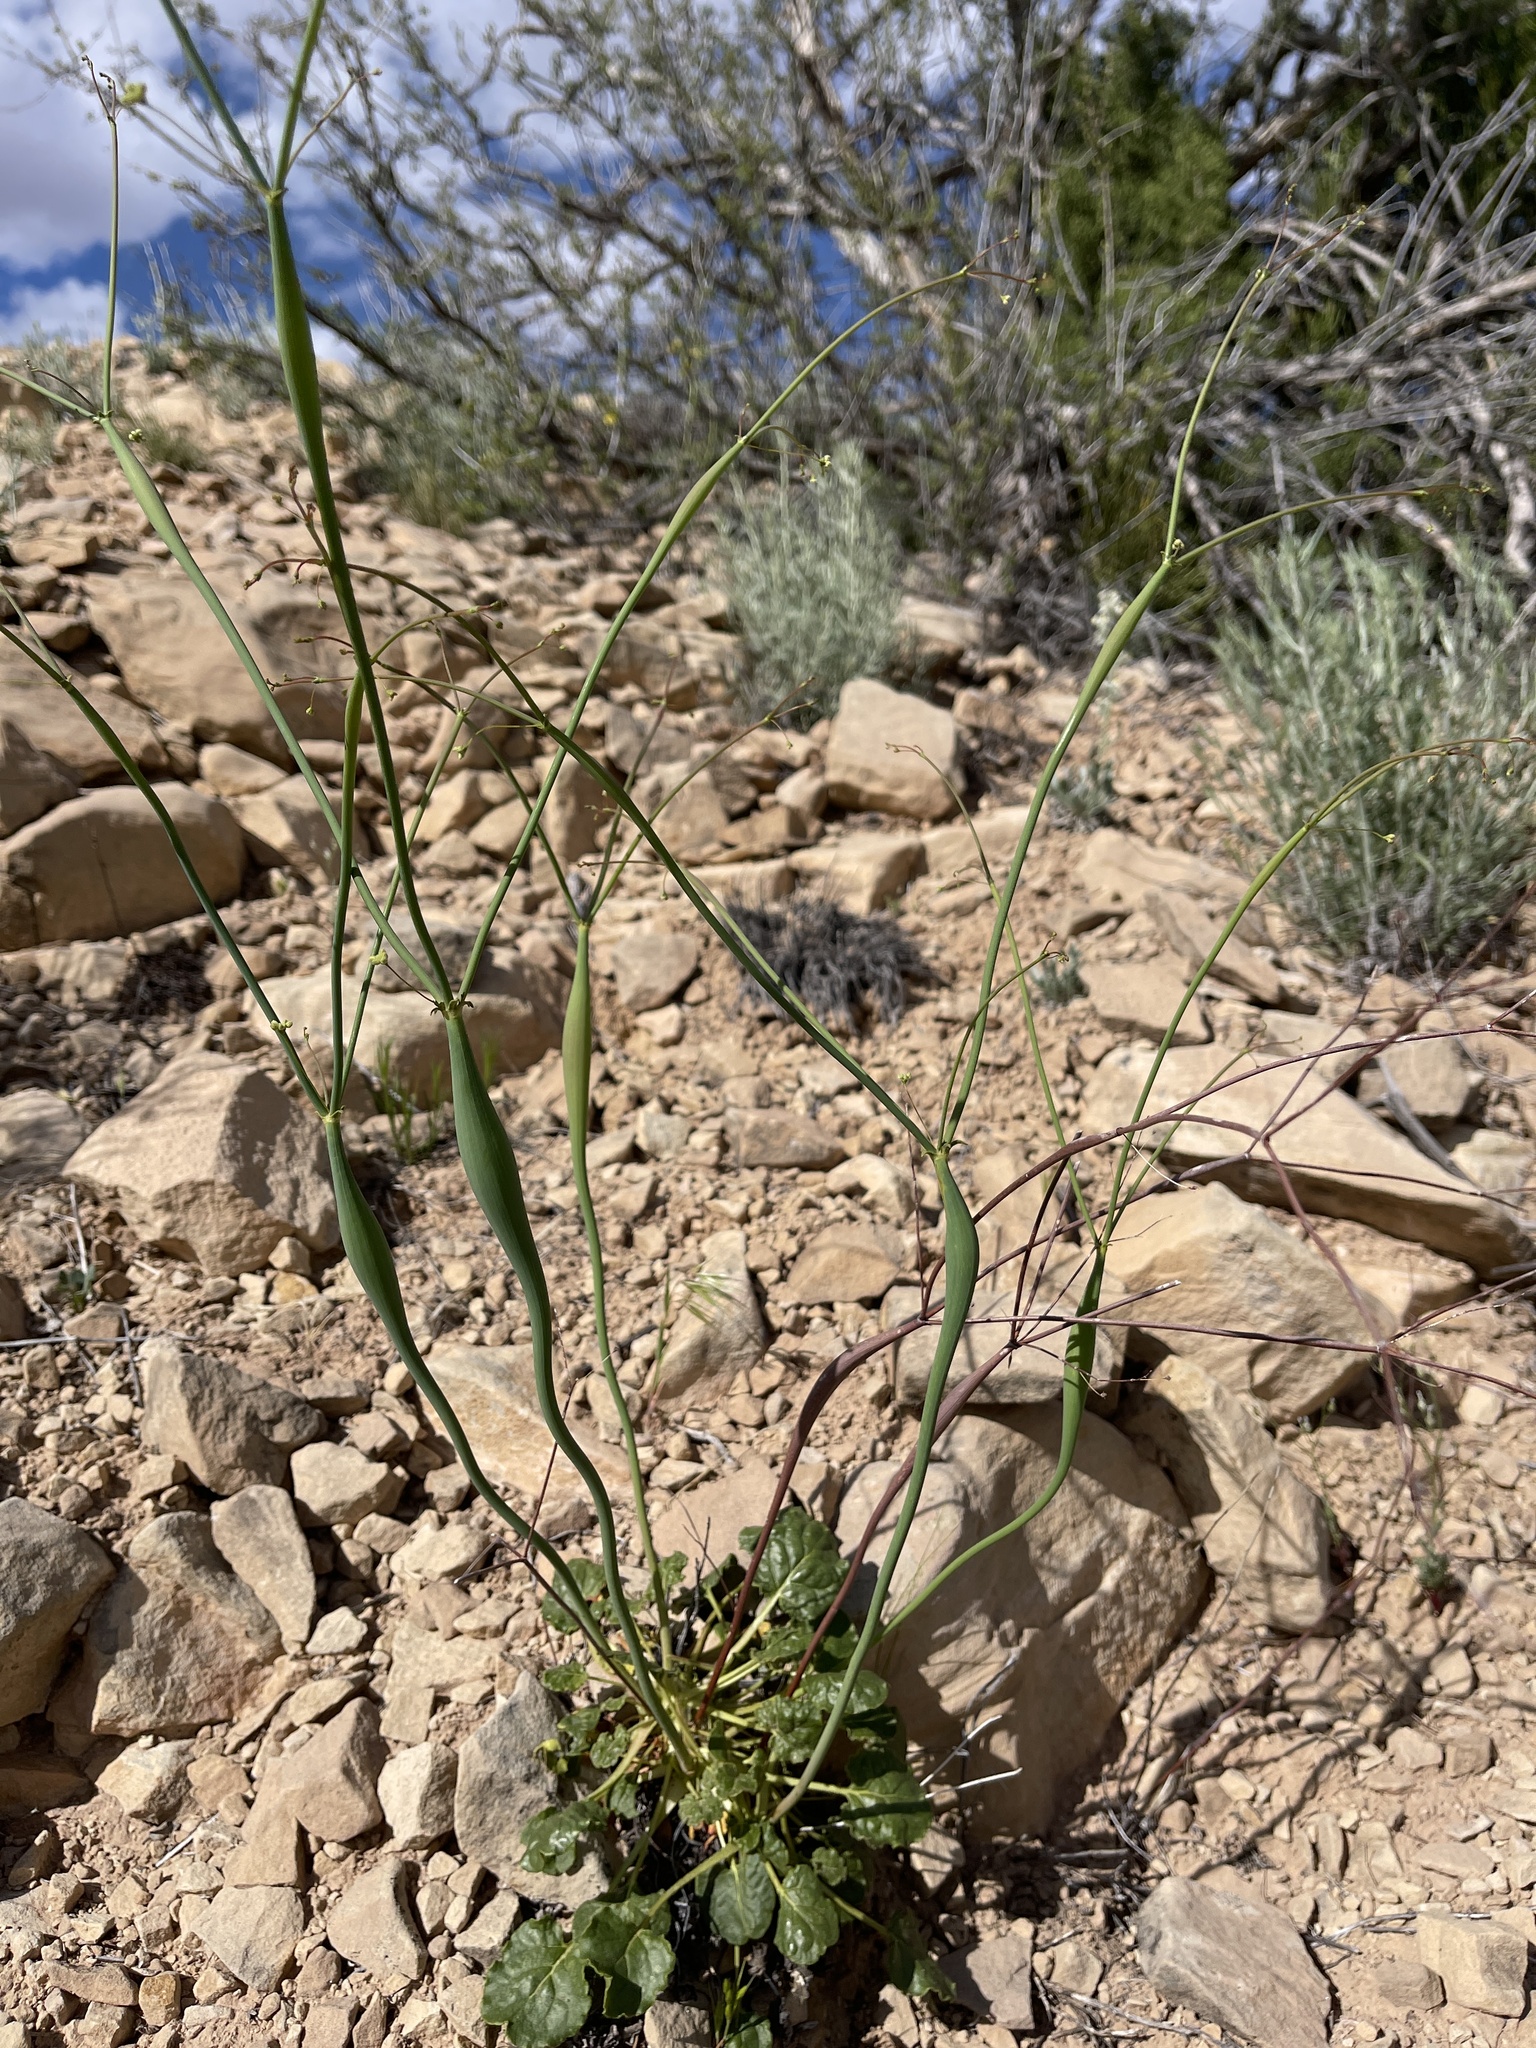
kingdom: Plantae
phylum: Tracheophyta
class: Magnoliopsida
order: Caryophyllales
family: Polygonaceae
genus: Eriogonum
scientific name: Eriogonum inflatum
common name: Desert trumpet
